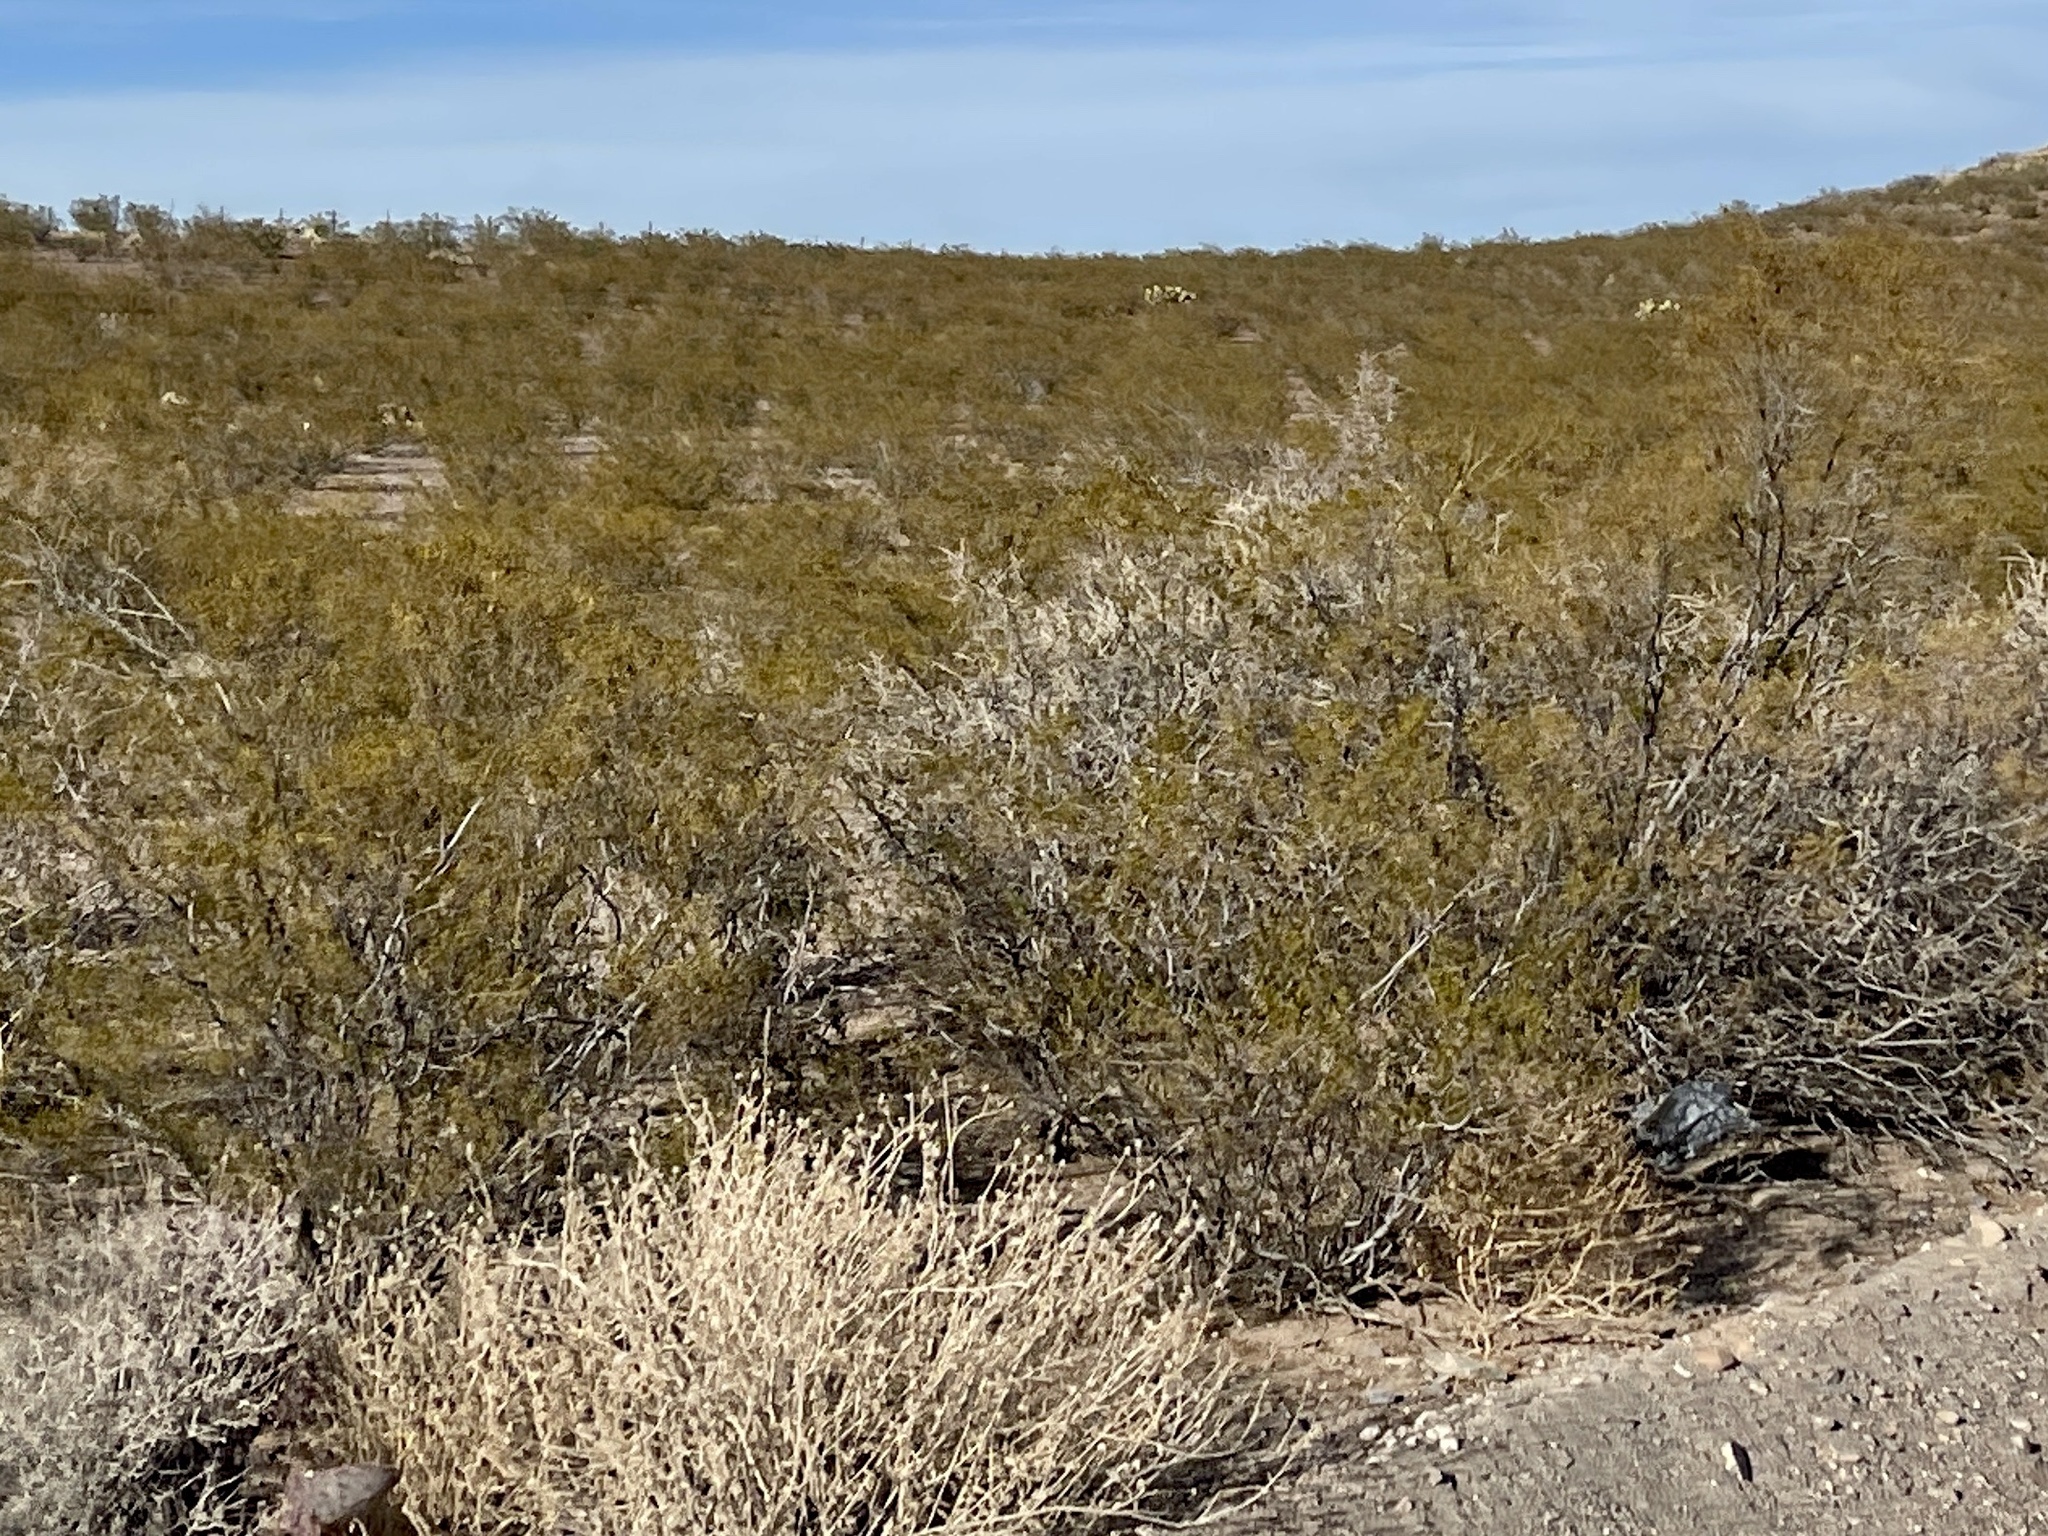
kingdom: Plantae
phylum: Tracheophyta
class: Magnoliopsida
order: Zygophyllales
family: Zygophyllaceae
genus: Larrea
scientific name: Larrea tridentata
